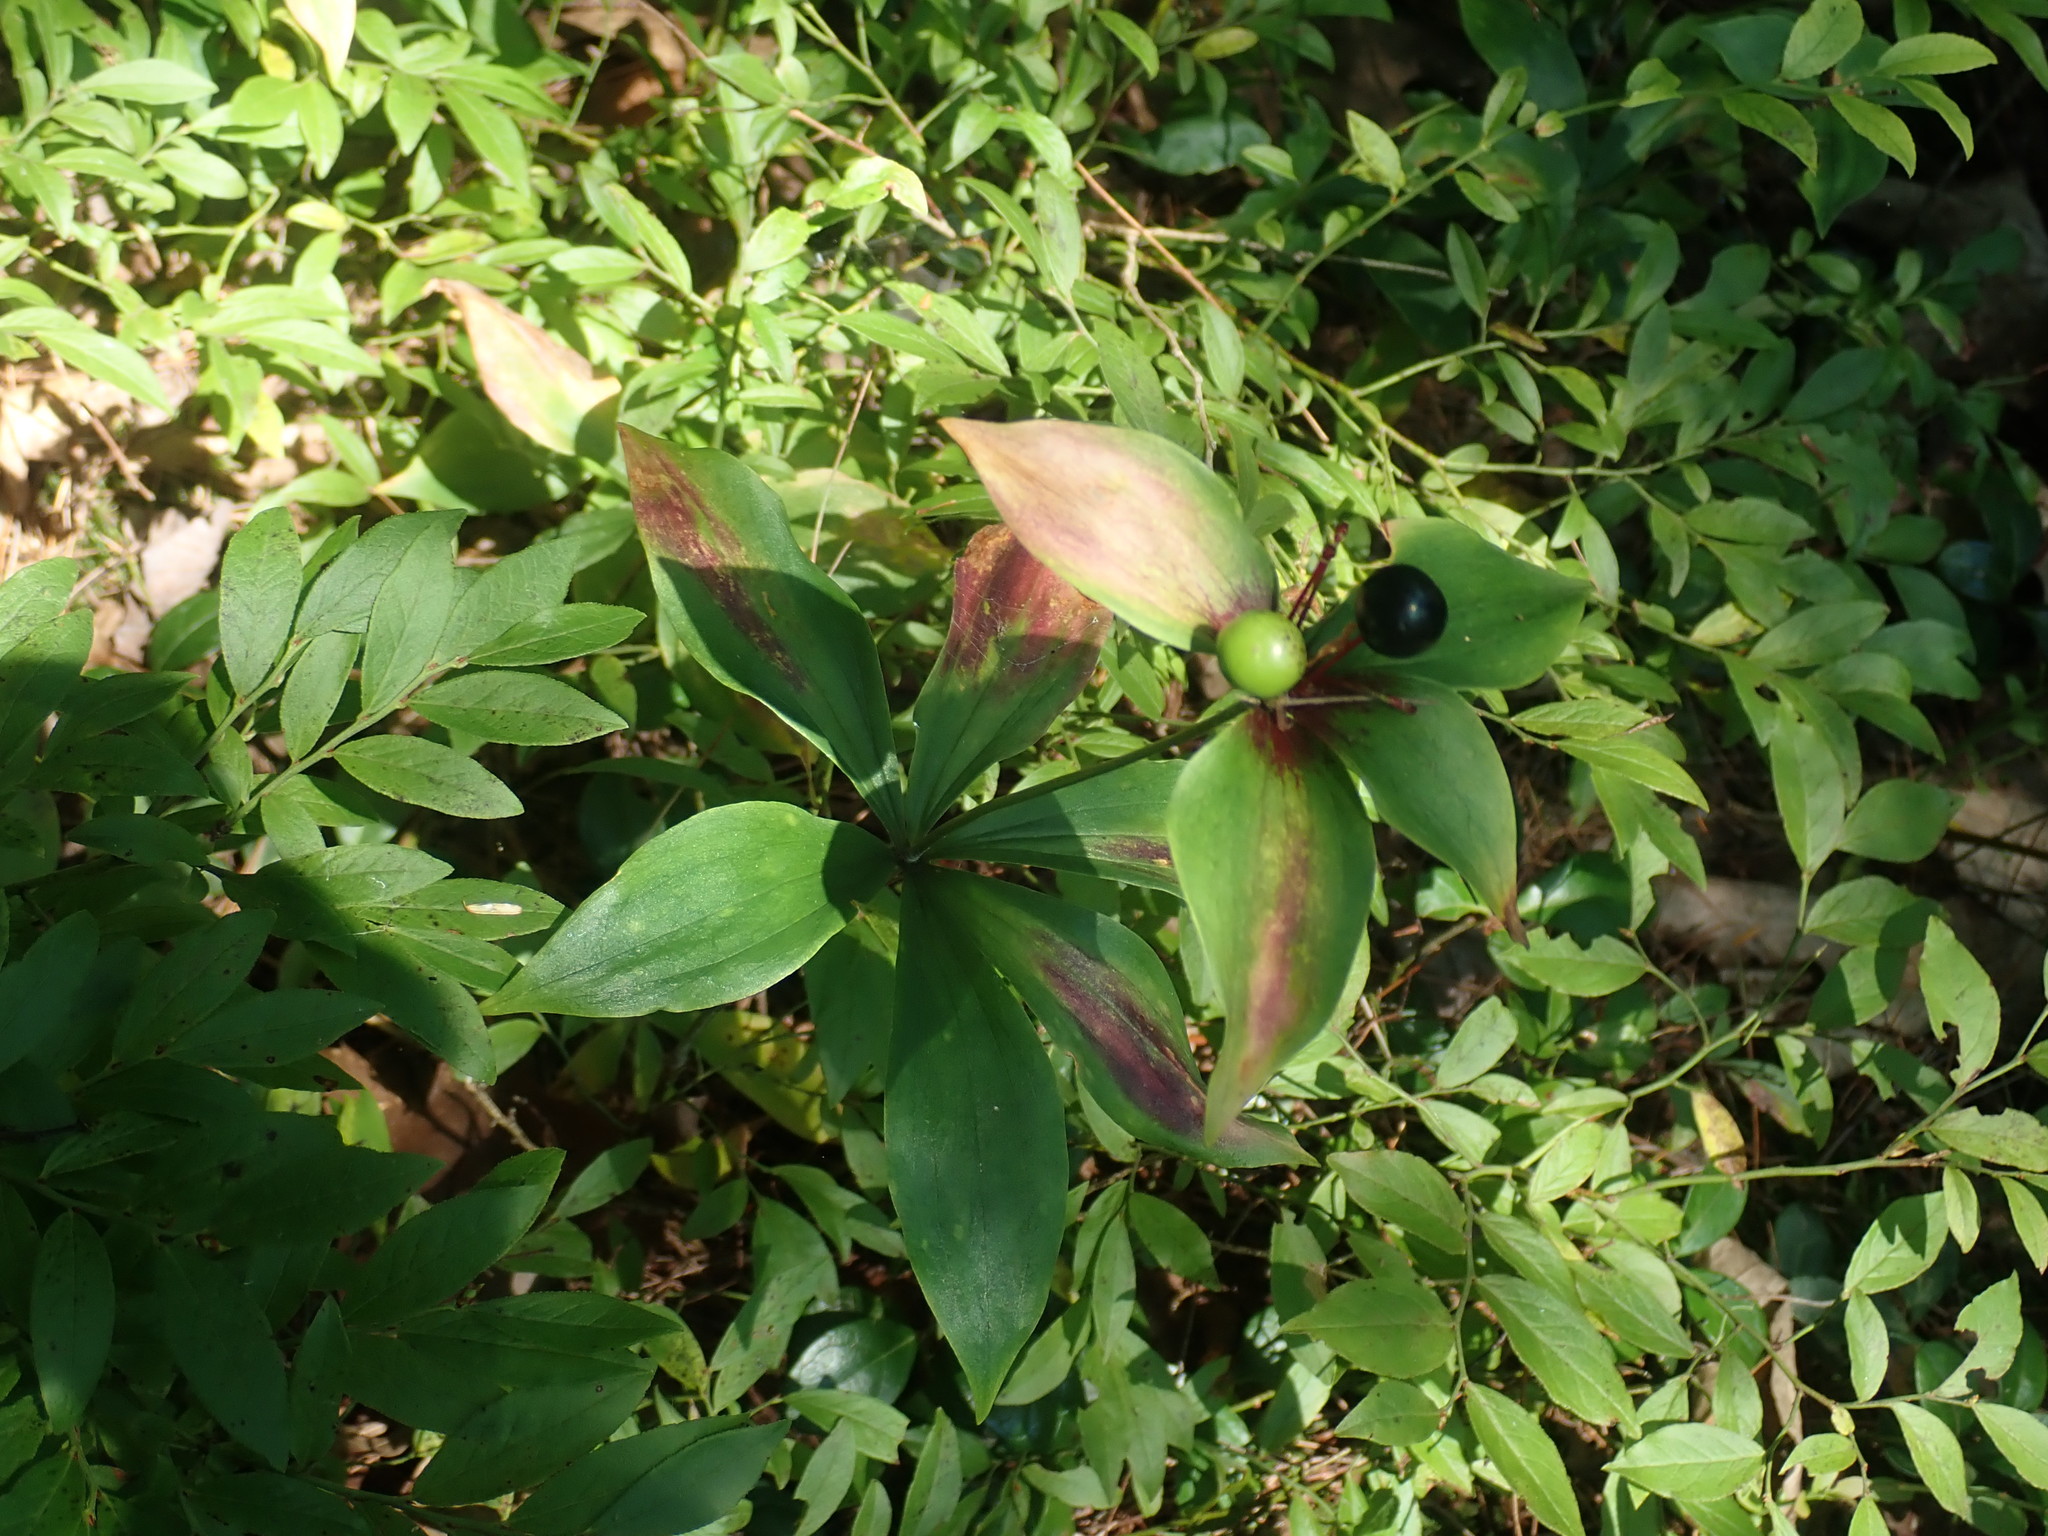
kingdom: Plantae
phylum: Tracheophyta
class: Liliopsida
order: Liliales
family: Liliaceae
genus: Medeola
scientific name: Medeola virginiana
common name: Indian cucumber-root
